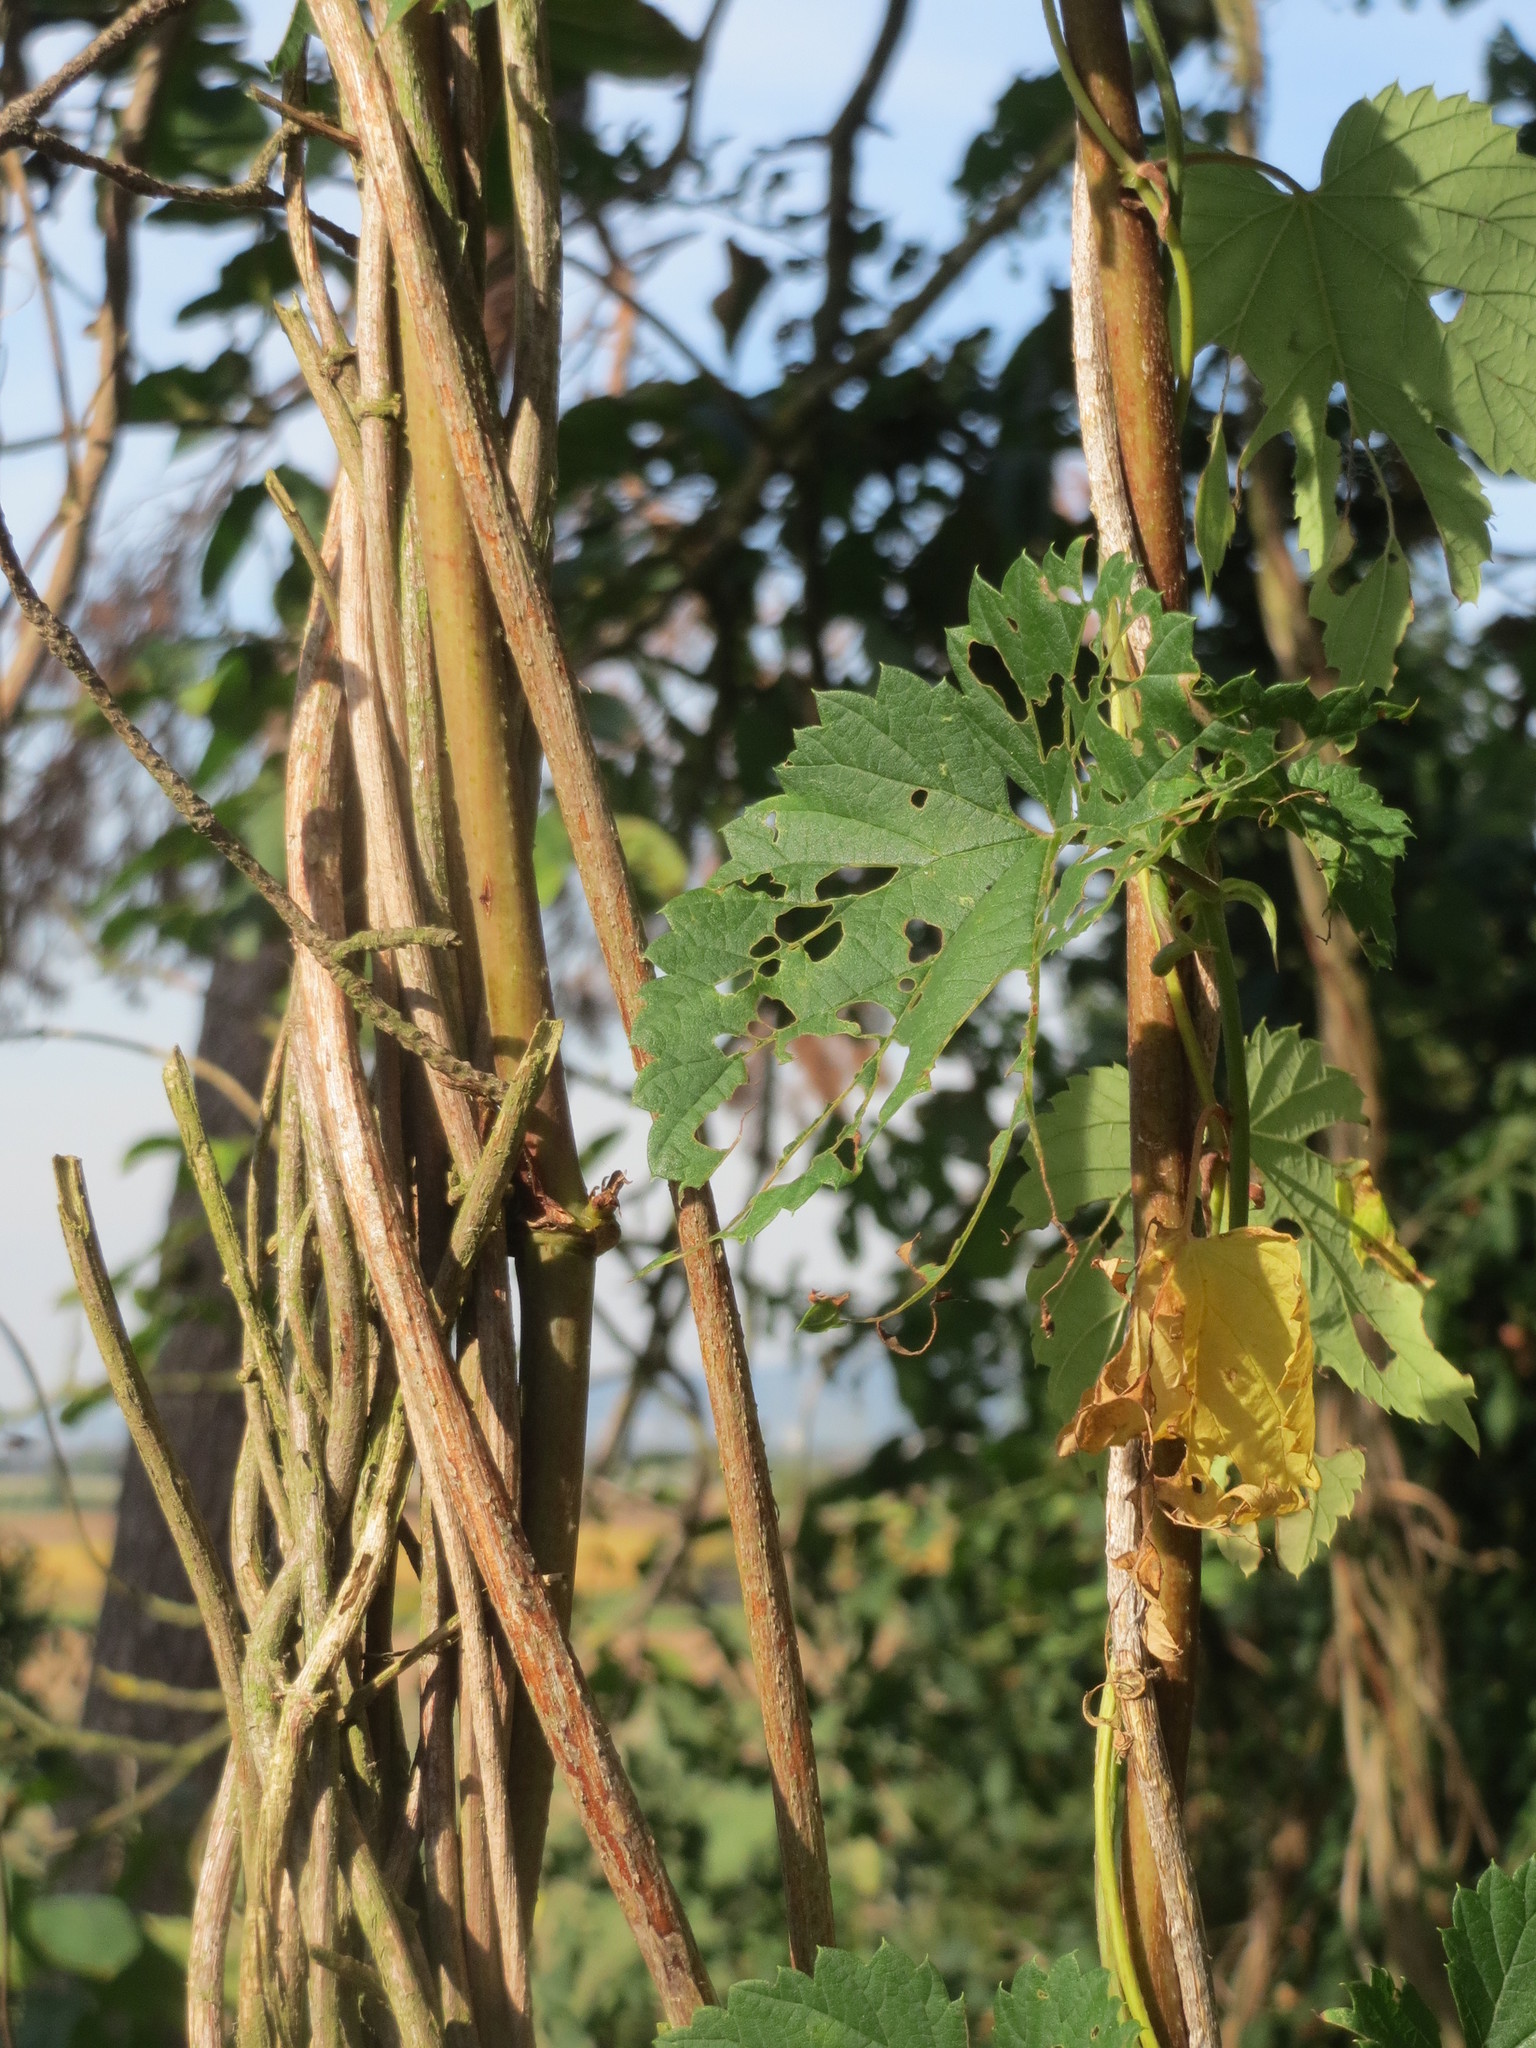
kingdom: Plantae
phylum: Tracheophyta
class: Magnoliopsida
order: Rosales
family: Cannabaceae
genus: Humulus
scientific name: Humulus lupulus
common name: Hop
